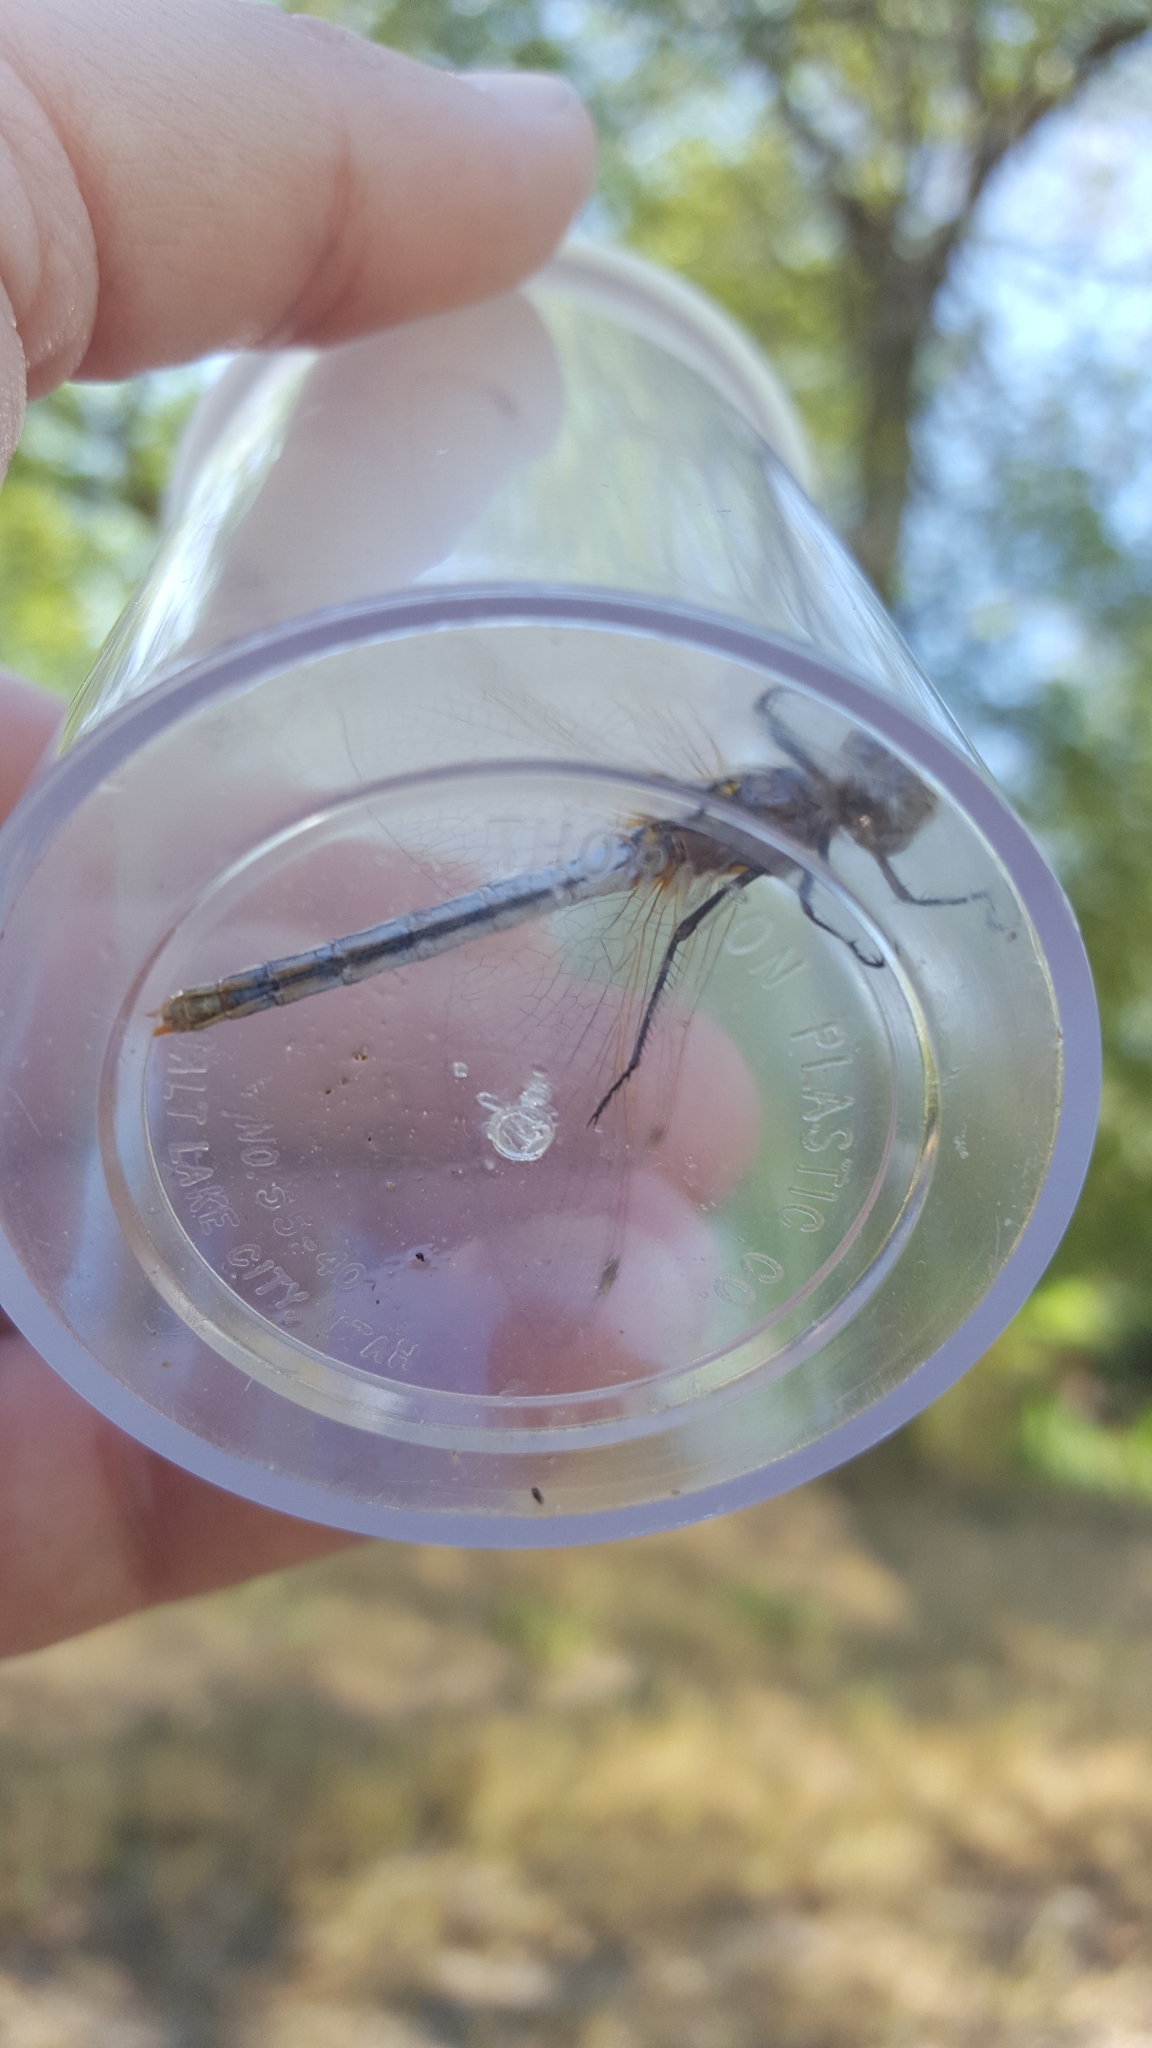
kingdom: Animalia
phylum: Arthropoda
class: Insecta
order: Odonata
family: Libellulidae
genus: Sympetrum
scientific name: Sympetrum corruptum
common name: Variegated meadowhawk
